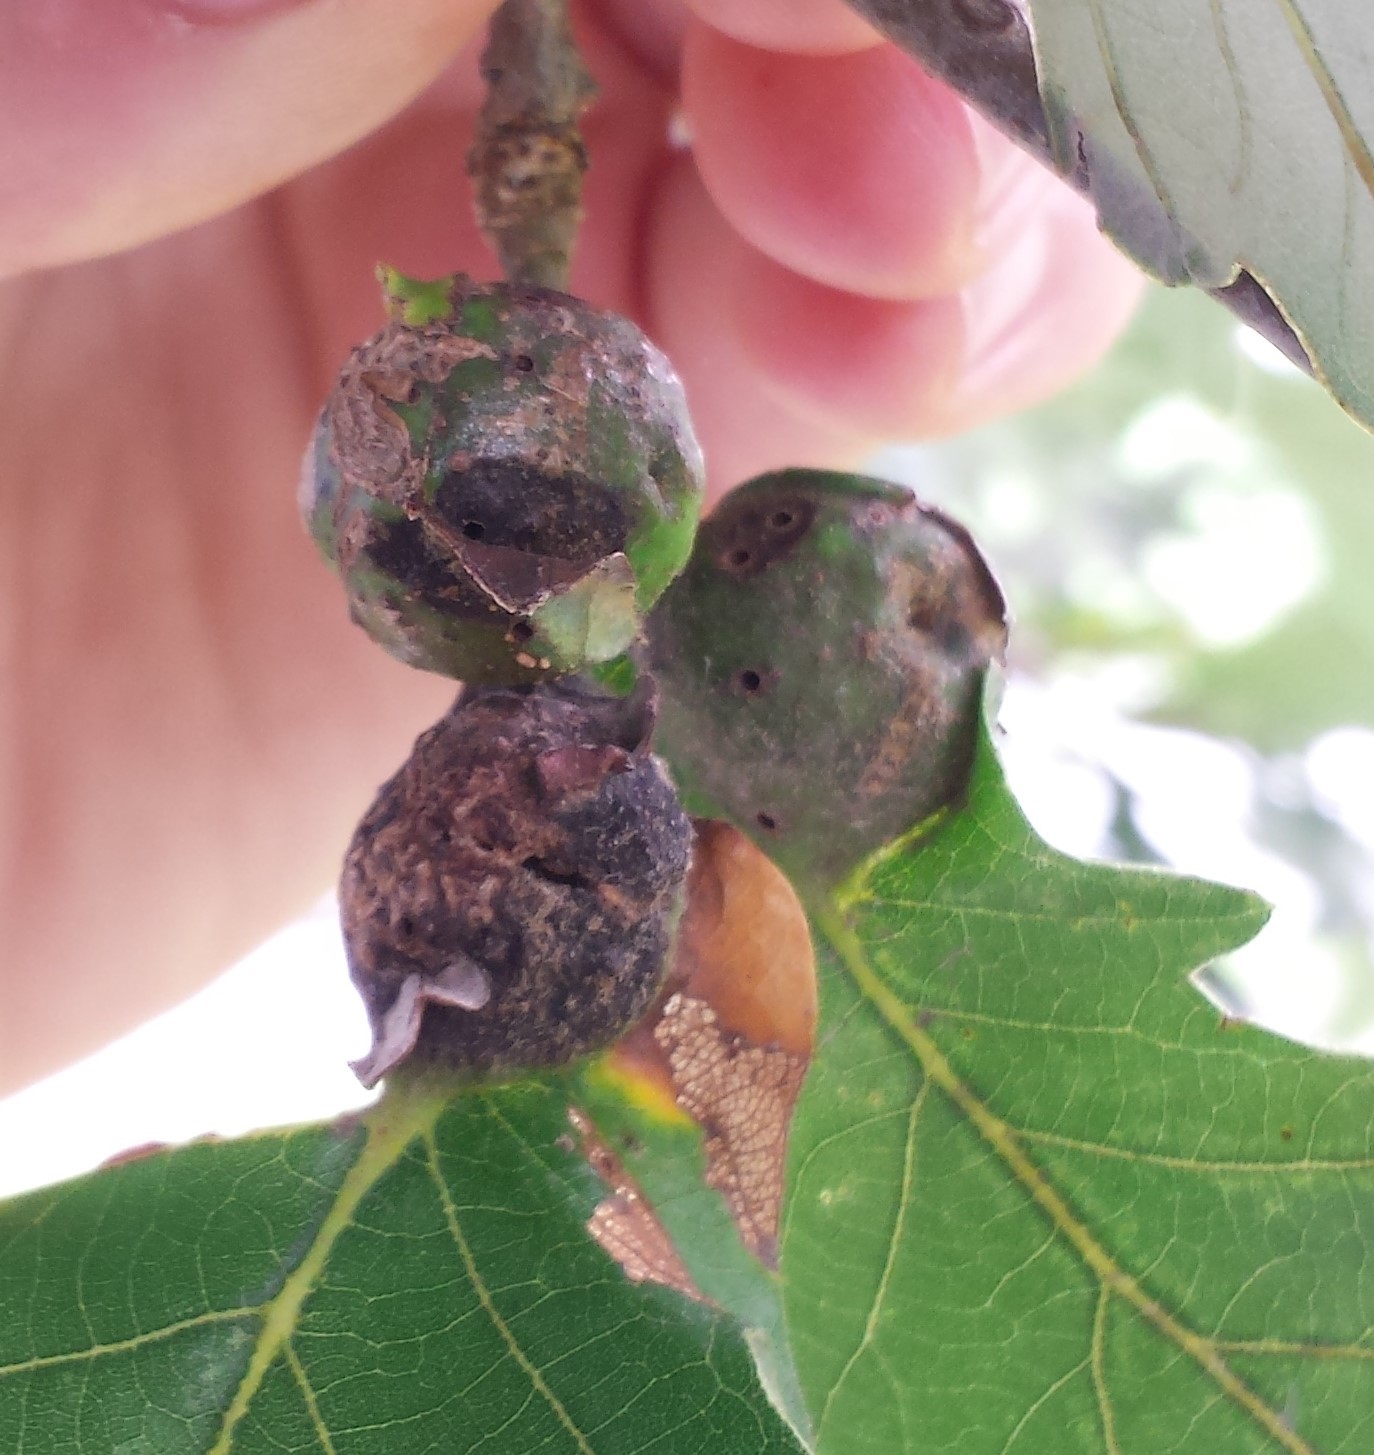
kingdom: Animalia
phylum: Arthropoda
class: Insecta
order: Hymenoptera
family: Cynipidae
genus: Andricus
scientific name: Andricus
